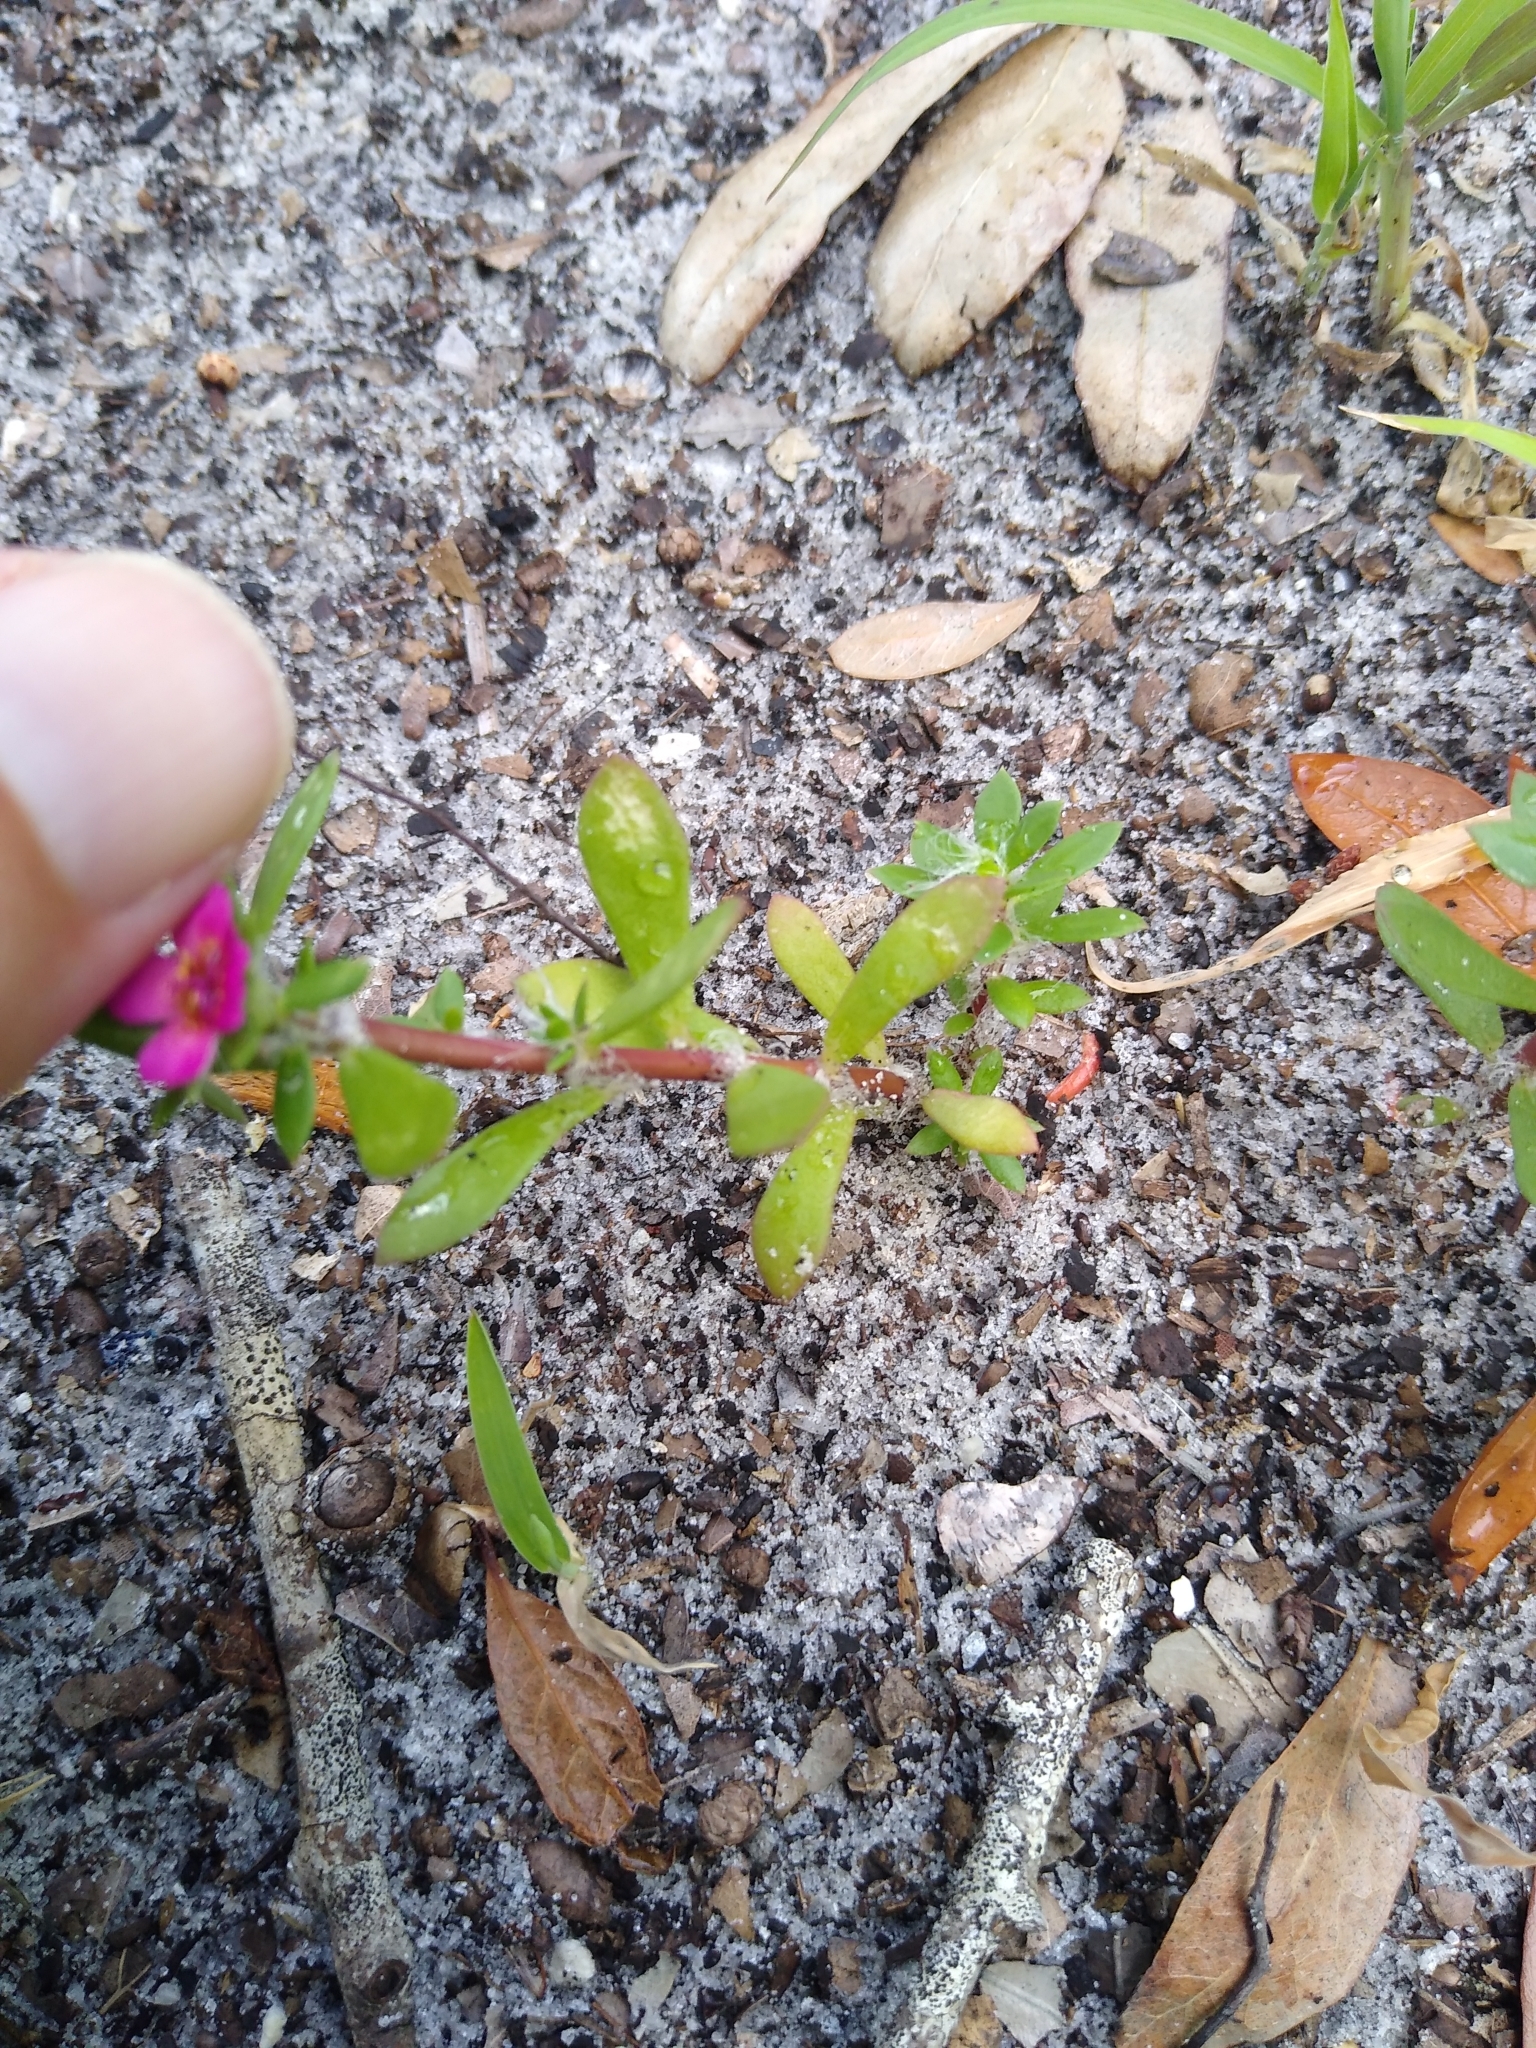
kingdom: Plantae
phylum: Tracheophyta
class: Magnoliopsida
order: Caryophyllales
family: Portulacaceae
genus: Portulaca
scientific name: Portulaca amilis
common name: Paraguayan purslane
